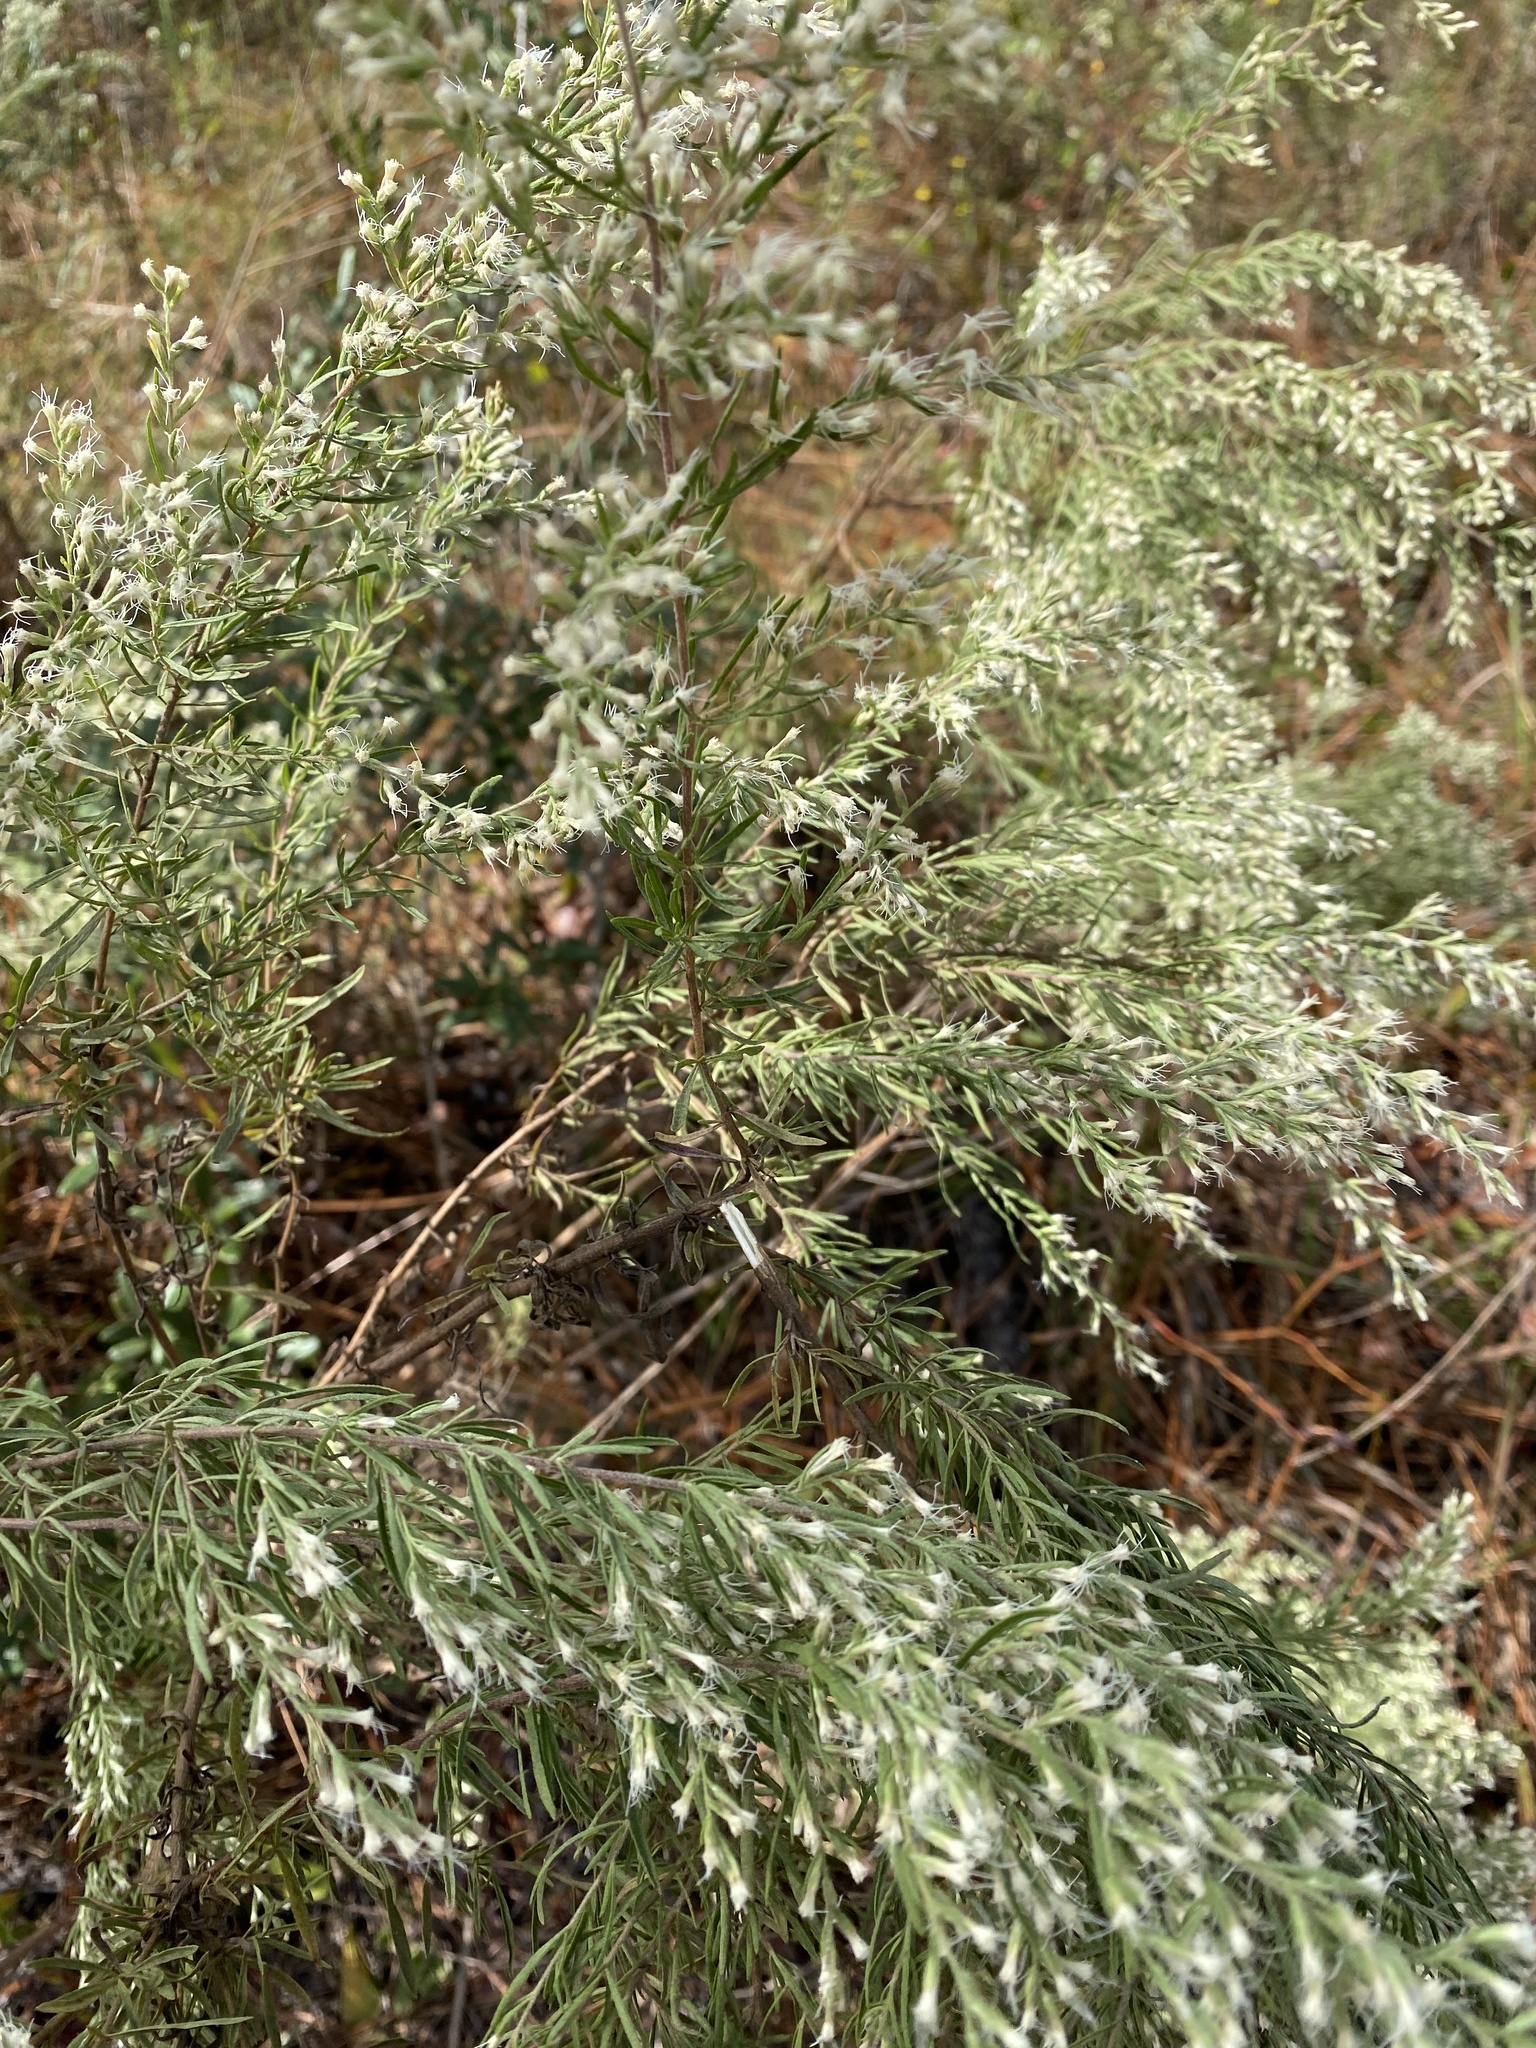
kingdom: Plantae
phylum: Tracheophyta
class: Magnoliopsida
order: Asterales
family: Asteraceae
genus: Eupatorium
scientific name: Eupatorium compositifolium
